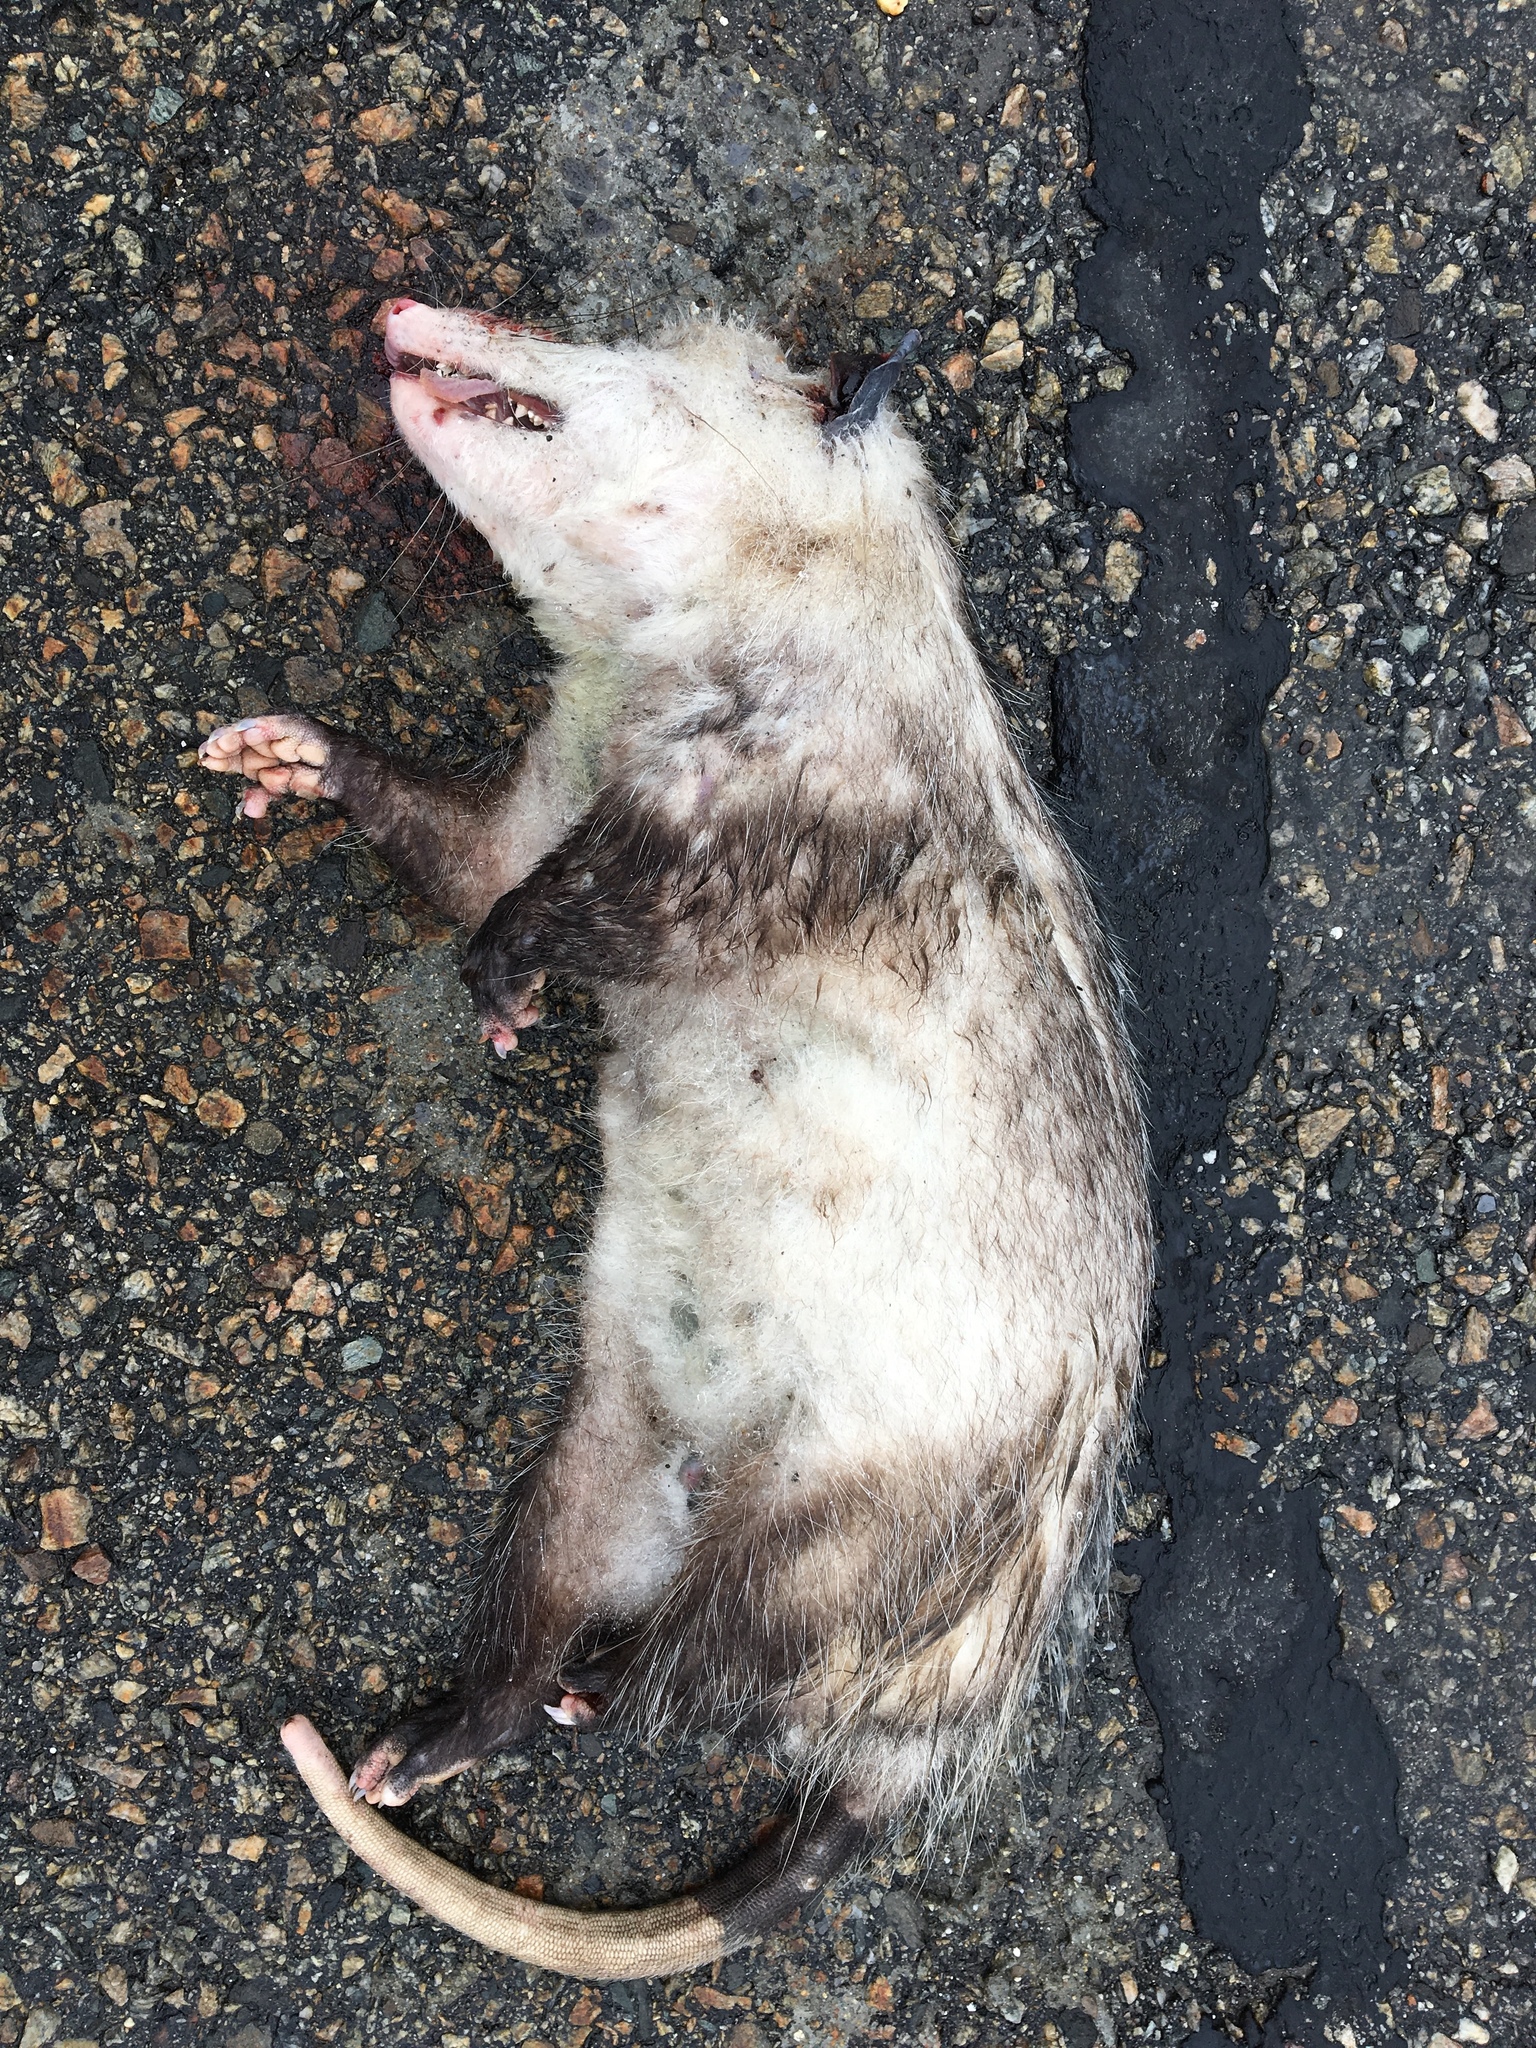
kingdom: Animalia
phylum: Chordata
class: Mammalia
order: Didelphimorphia
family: Didelphidae
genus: Didelphis
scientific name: Didelphis virginiana
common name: Virginia opossum
